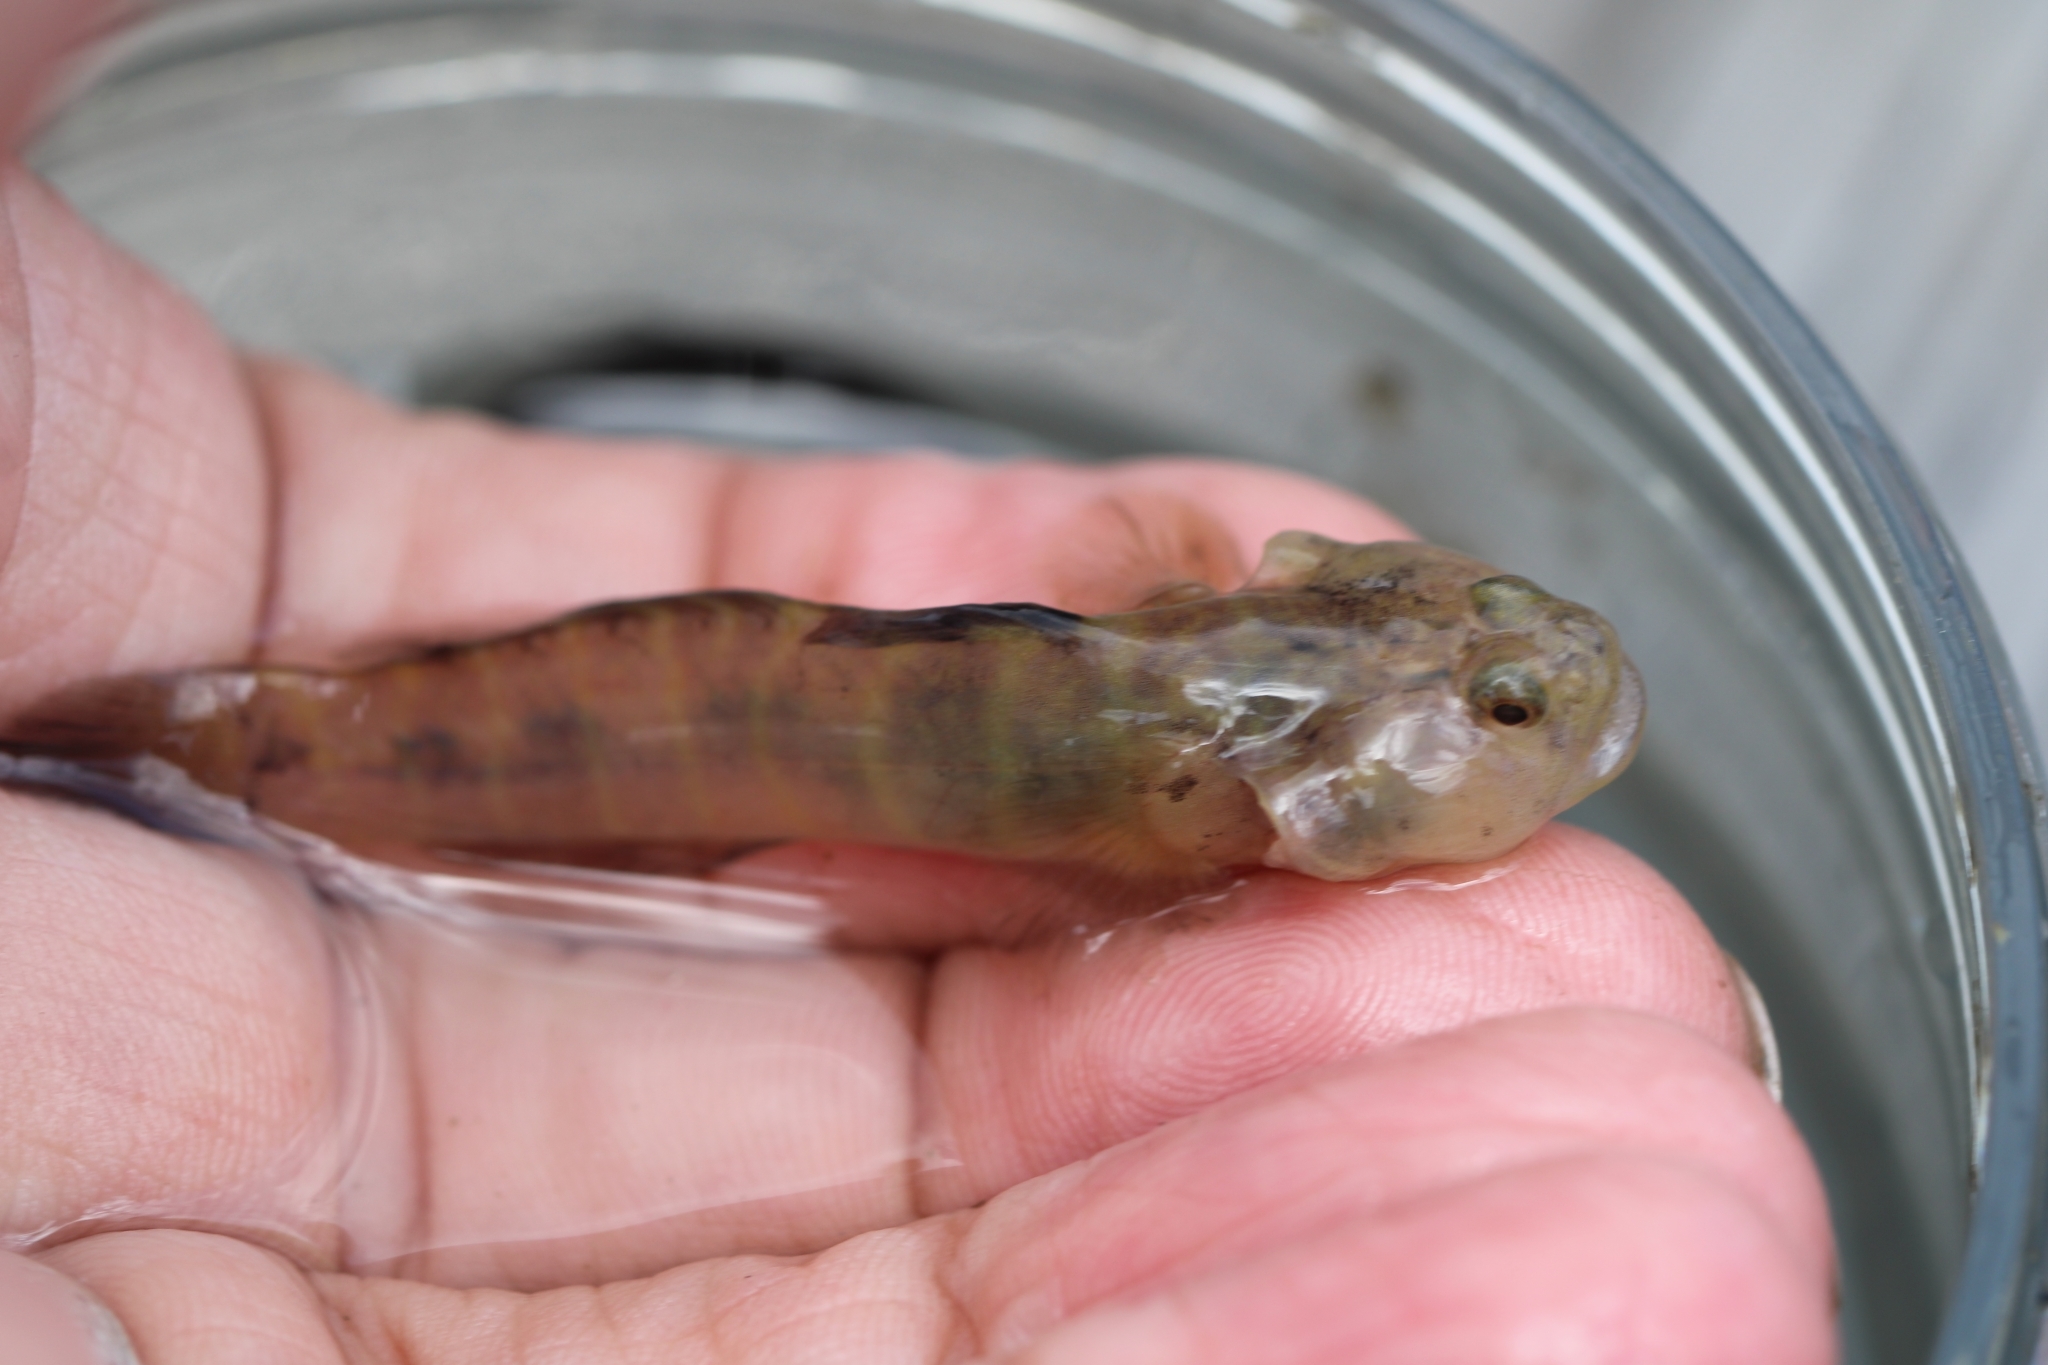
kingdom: Animalia
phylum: Chordata
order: Perciformes
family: Gobiidae
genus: Gobiosoma
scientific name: Gobiosoma bosc
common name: Naked goby
